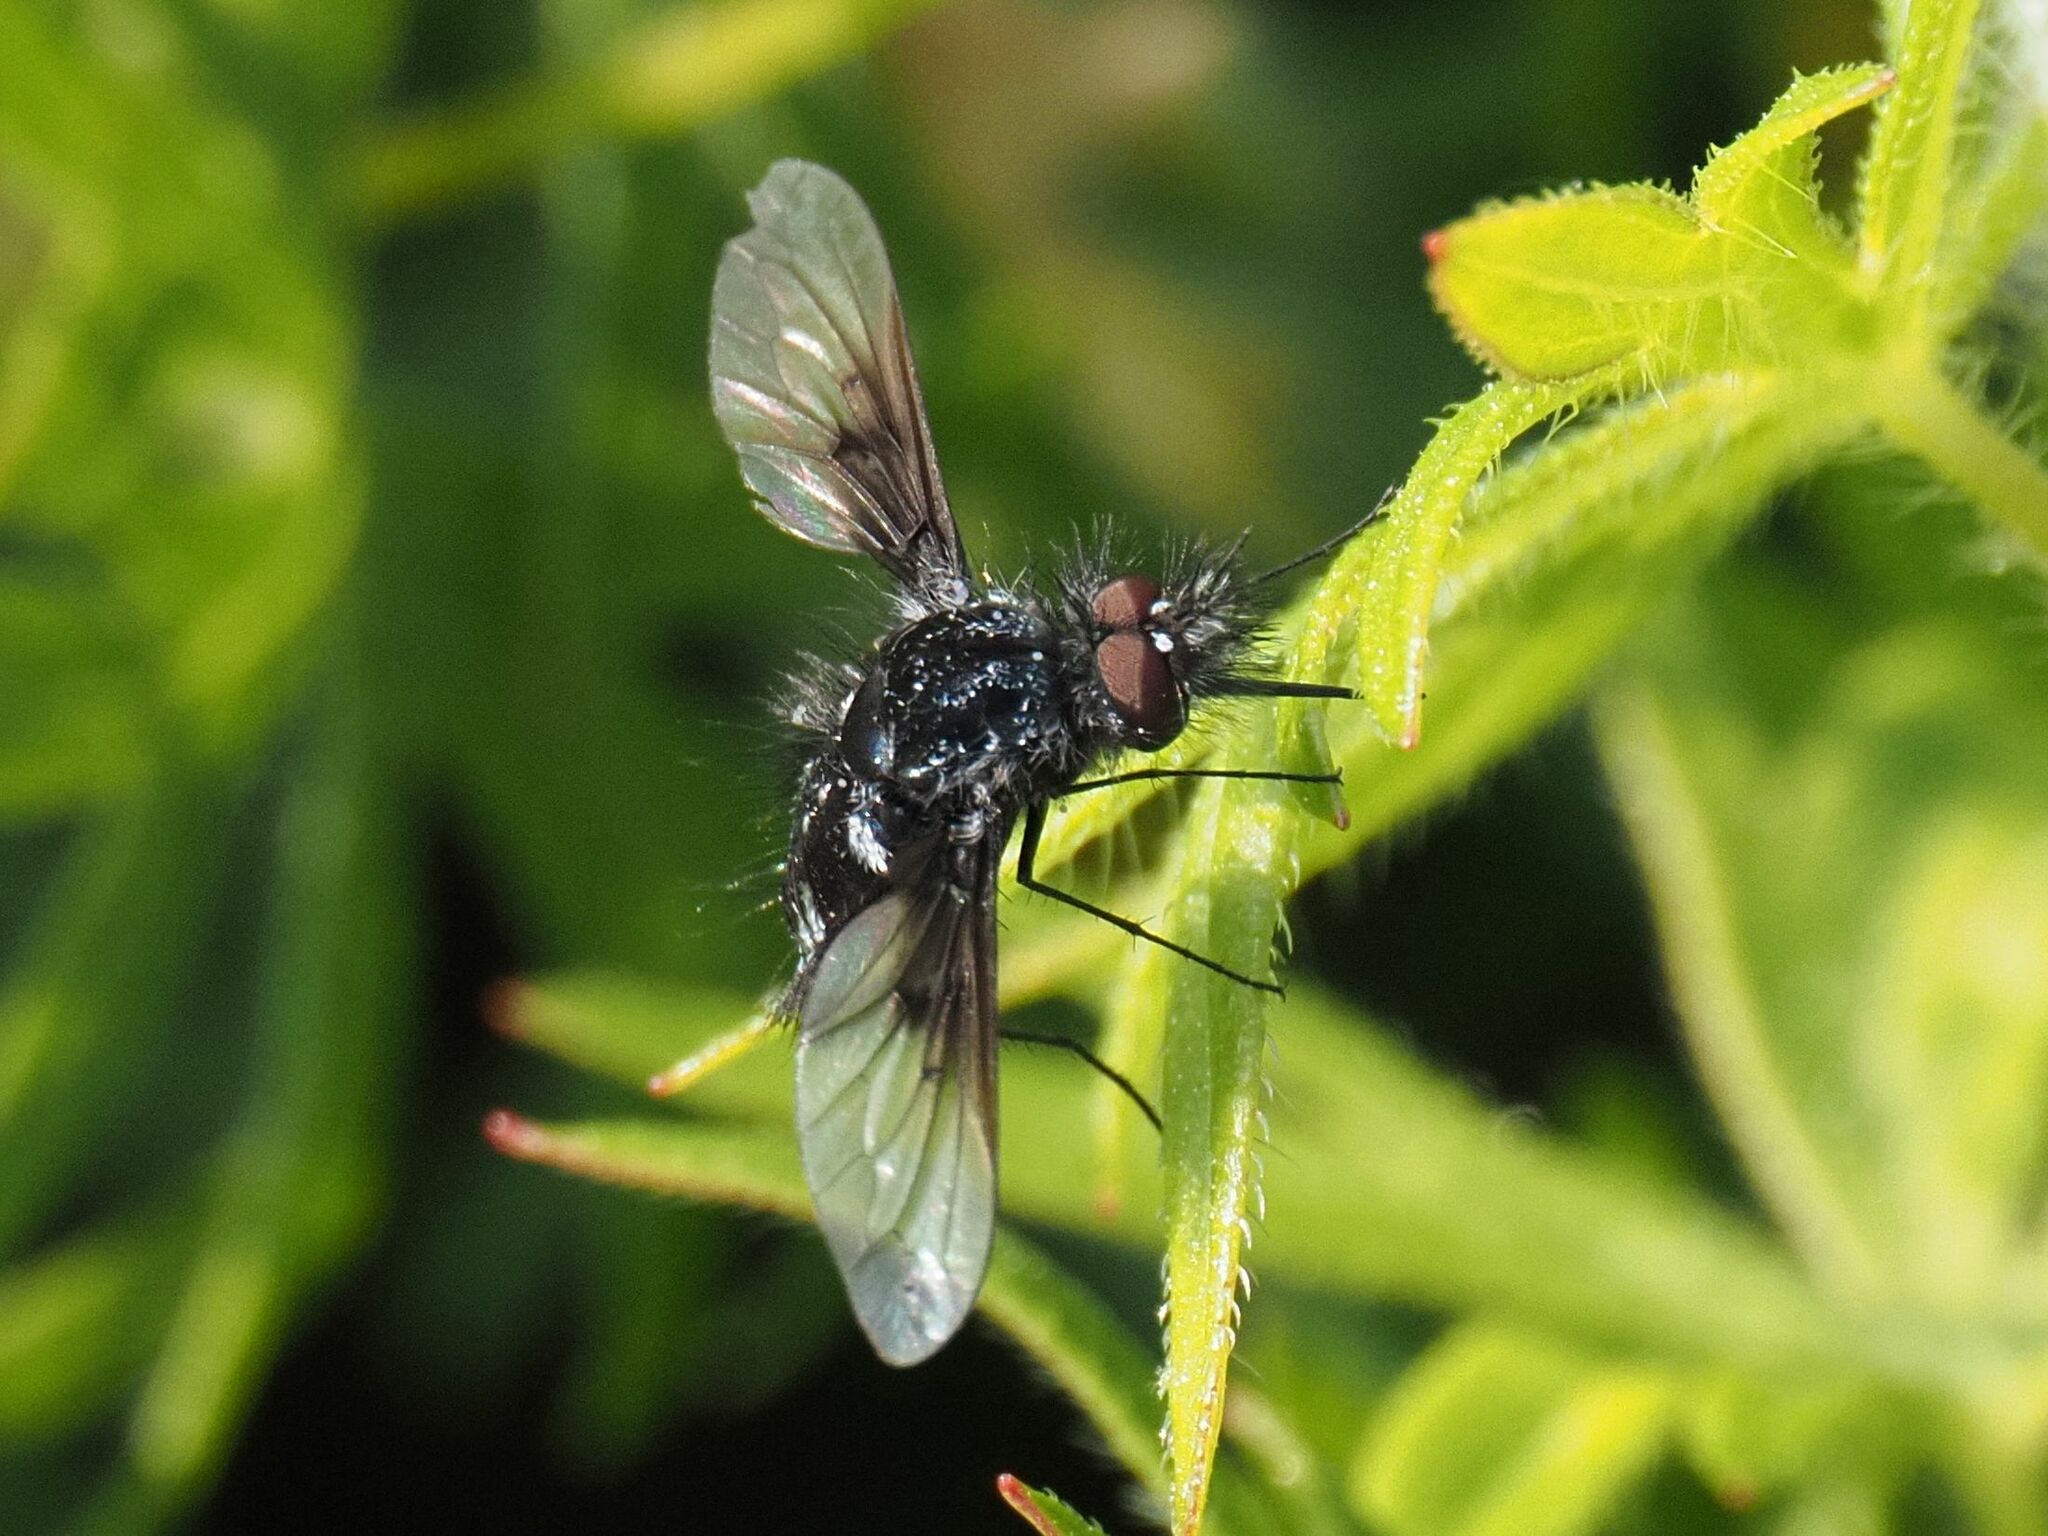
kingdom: Animalia
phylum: Arthropoda
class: Insecta
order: Diptera
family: Bombyliidae
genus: Bombylella
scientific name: Bombylella atra
